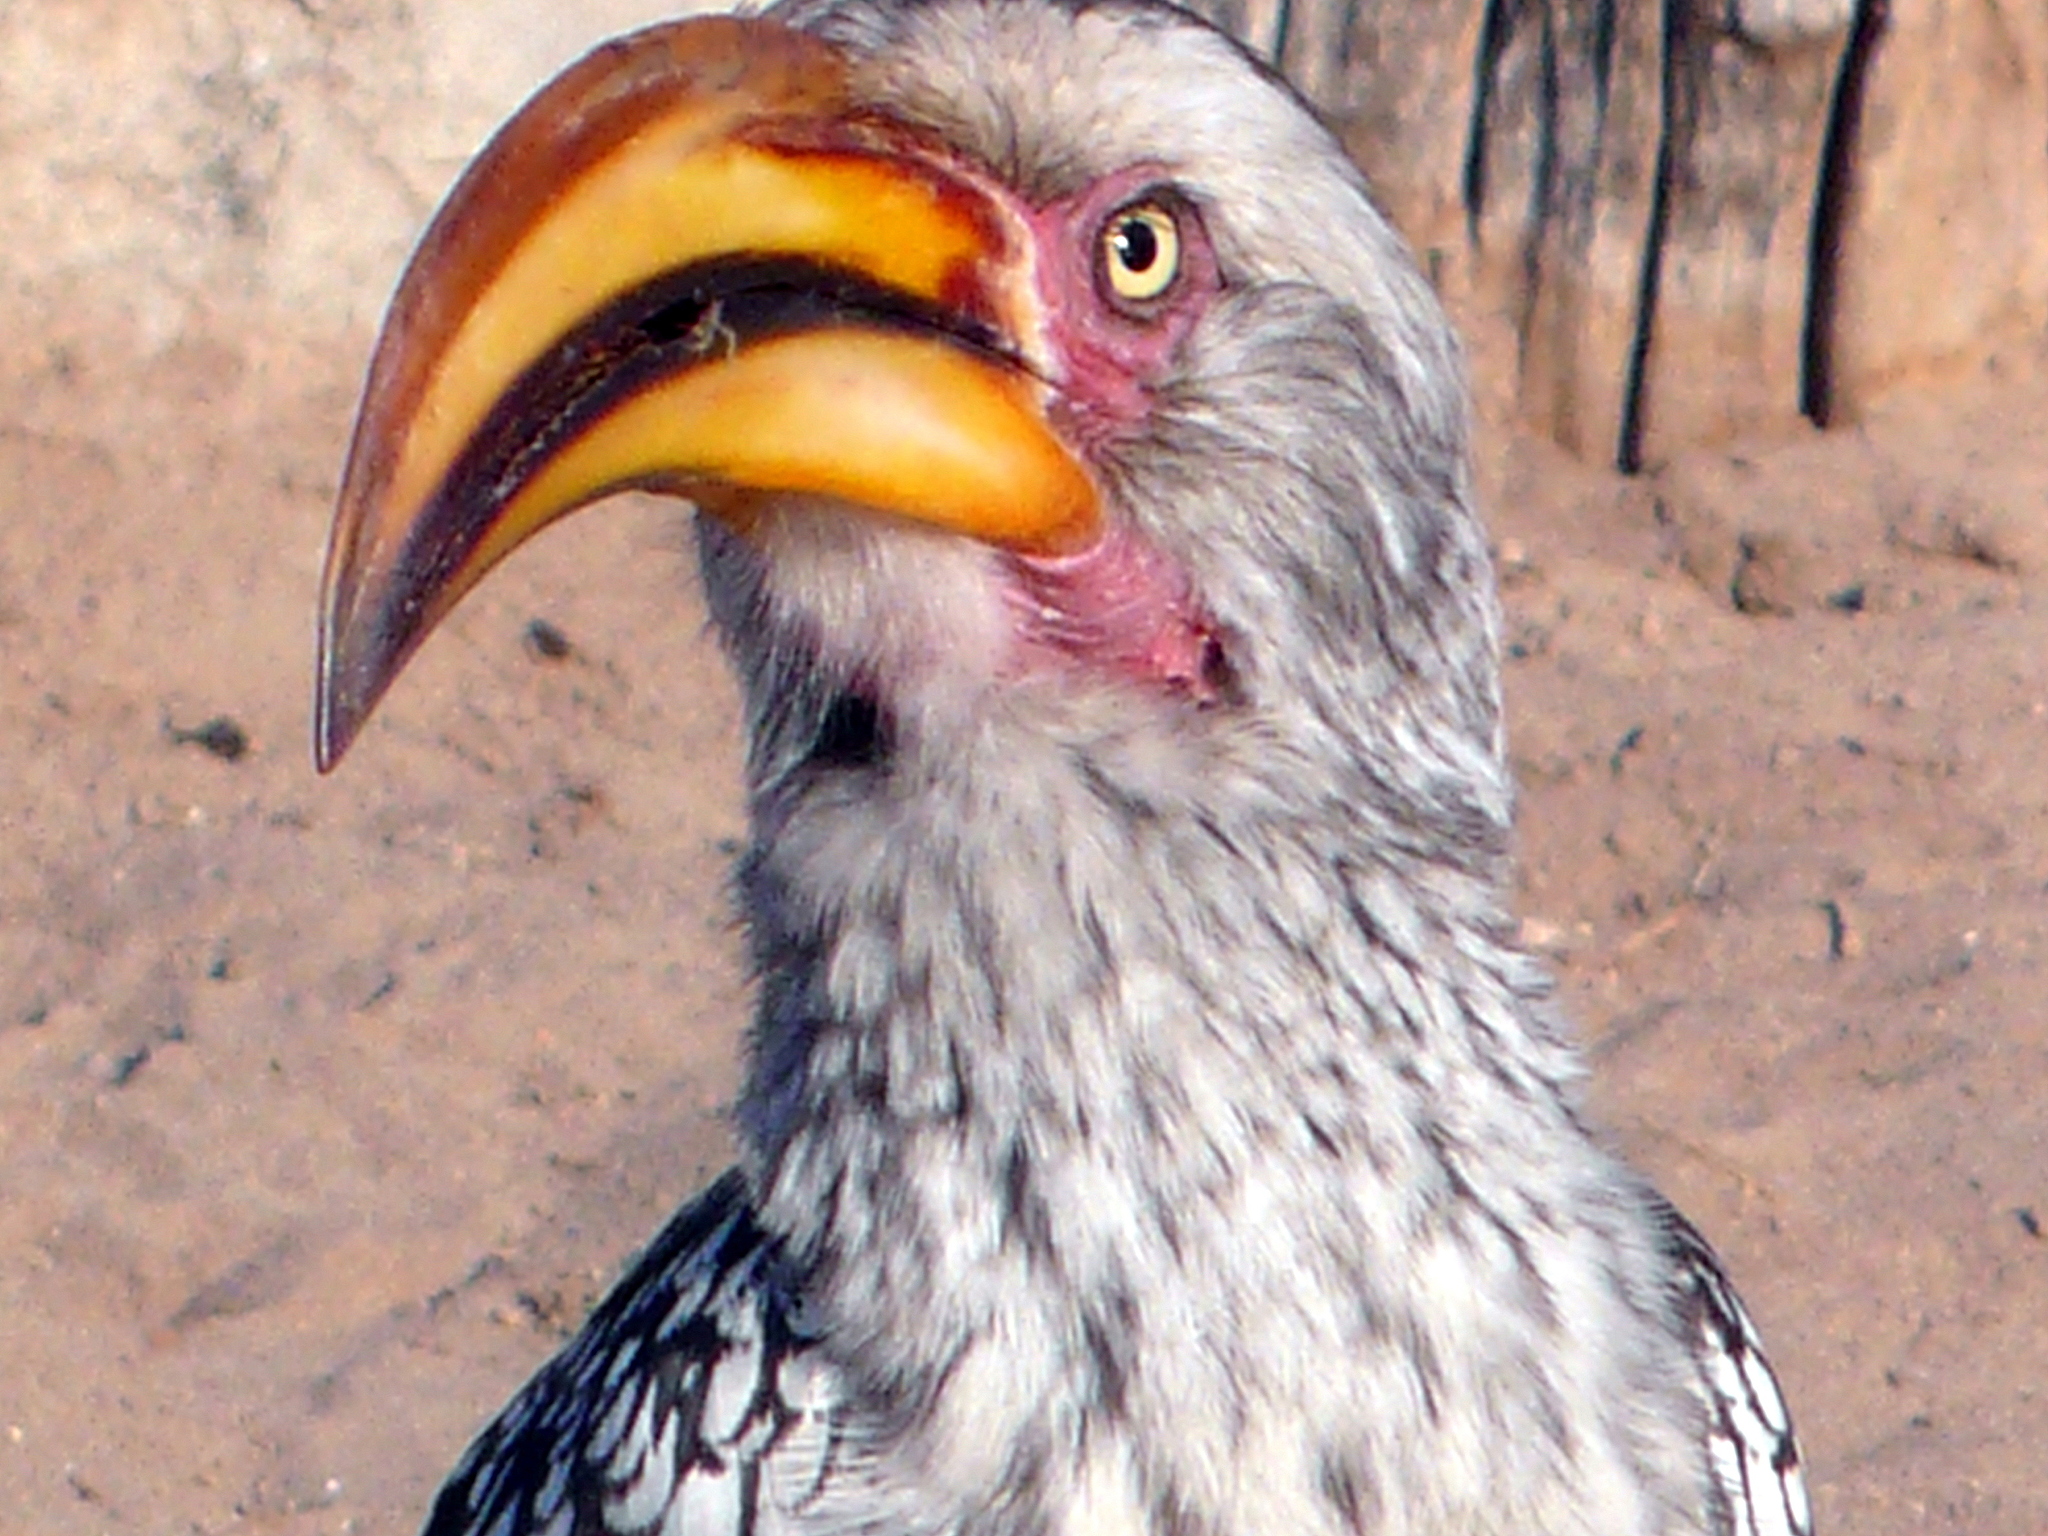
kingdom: Animalia
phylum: Chordata
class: Aves
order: Bucerotiformes
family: Bucerotidae
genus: Tockus
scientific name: Tockus leucomelas
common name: Southern yellow-billed hornbill
